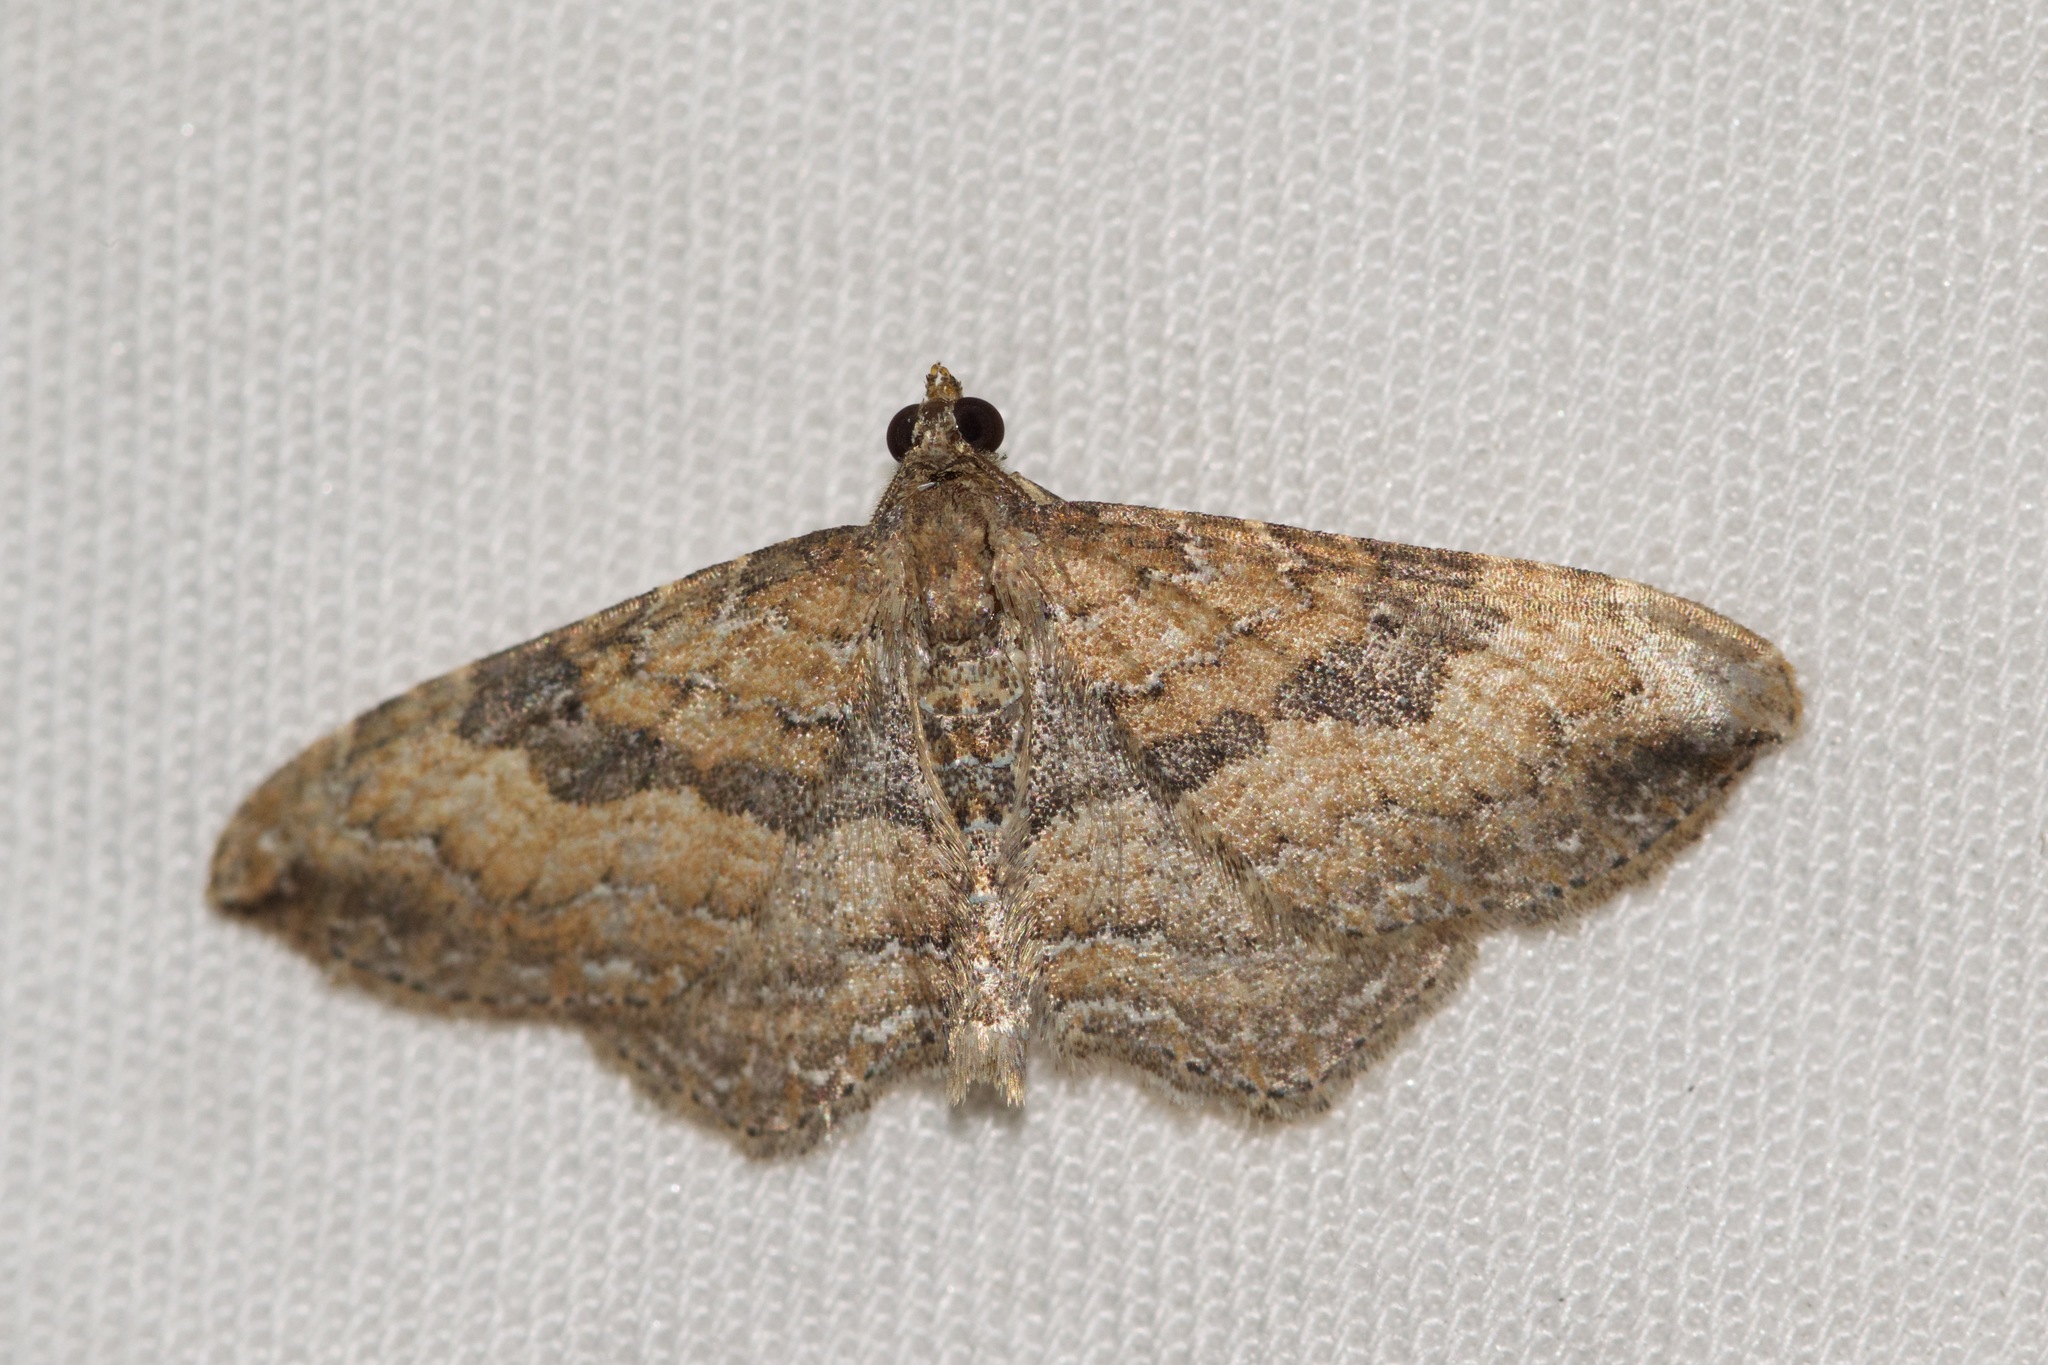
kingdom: Animalia
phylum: Arthropoda
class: Insecta
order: Lepidoptera
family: Geometridae
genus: Orthonama
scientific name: Orthonama obstipata
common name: The gem
